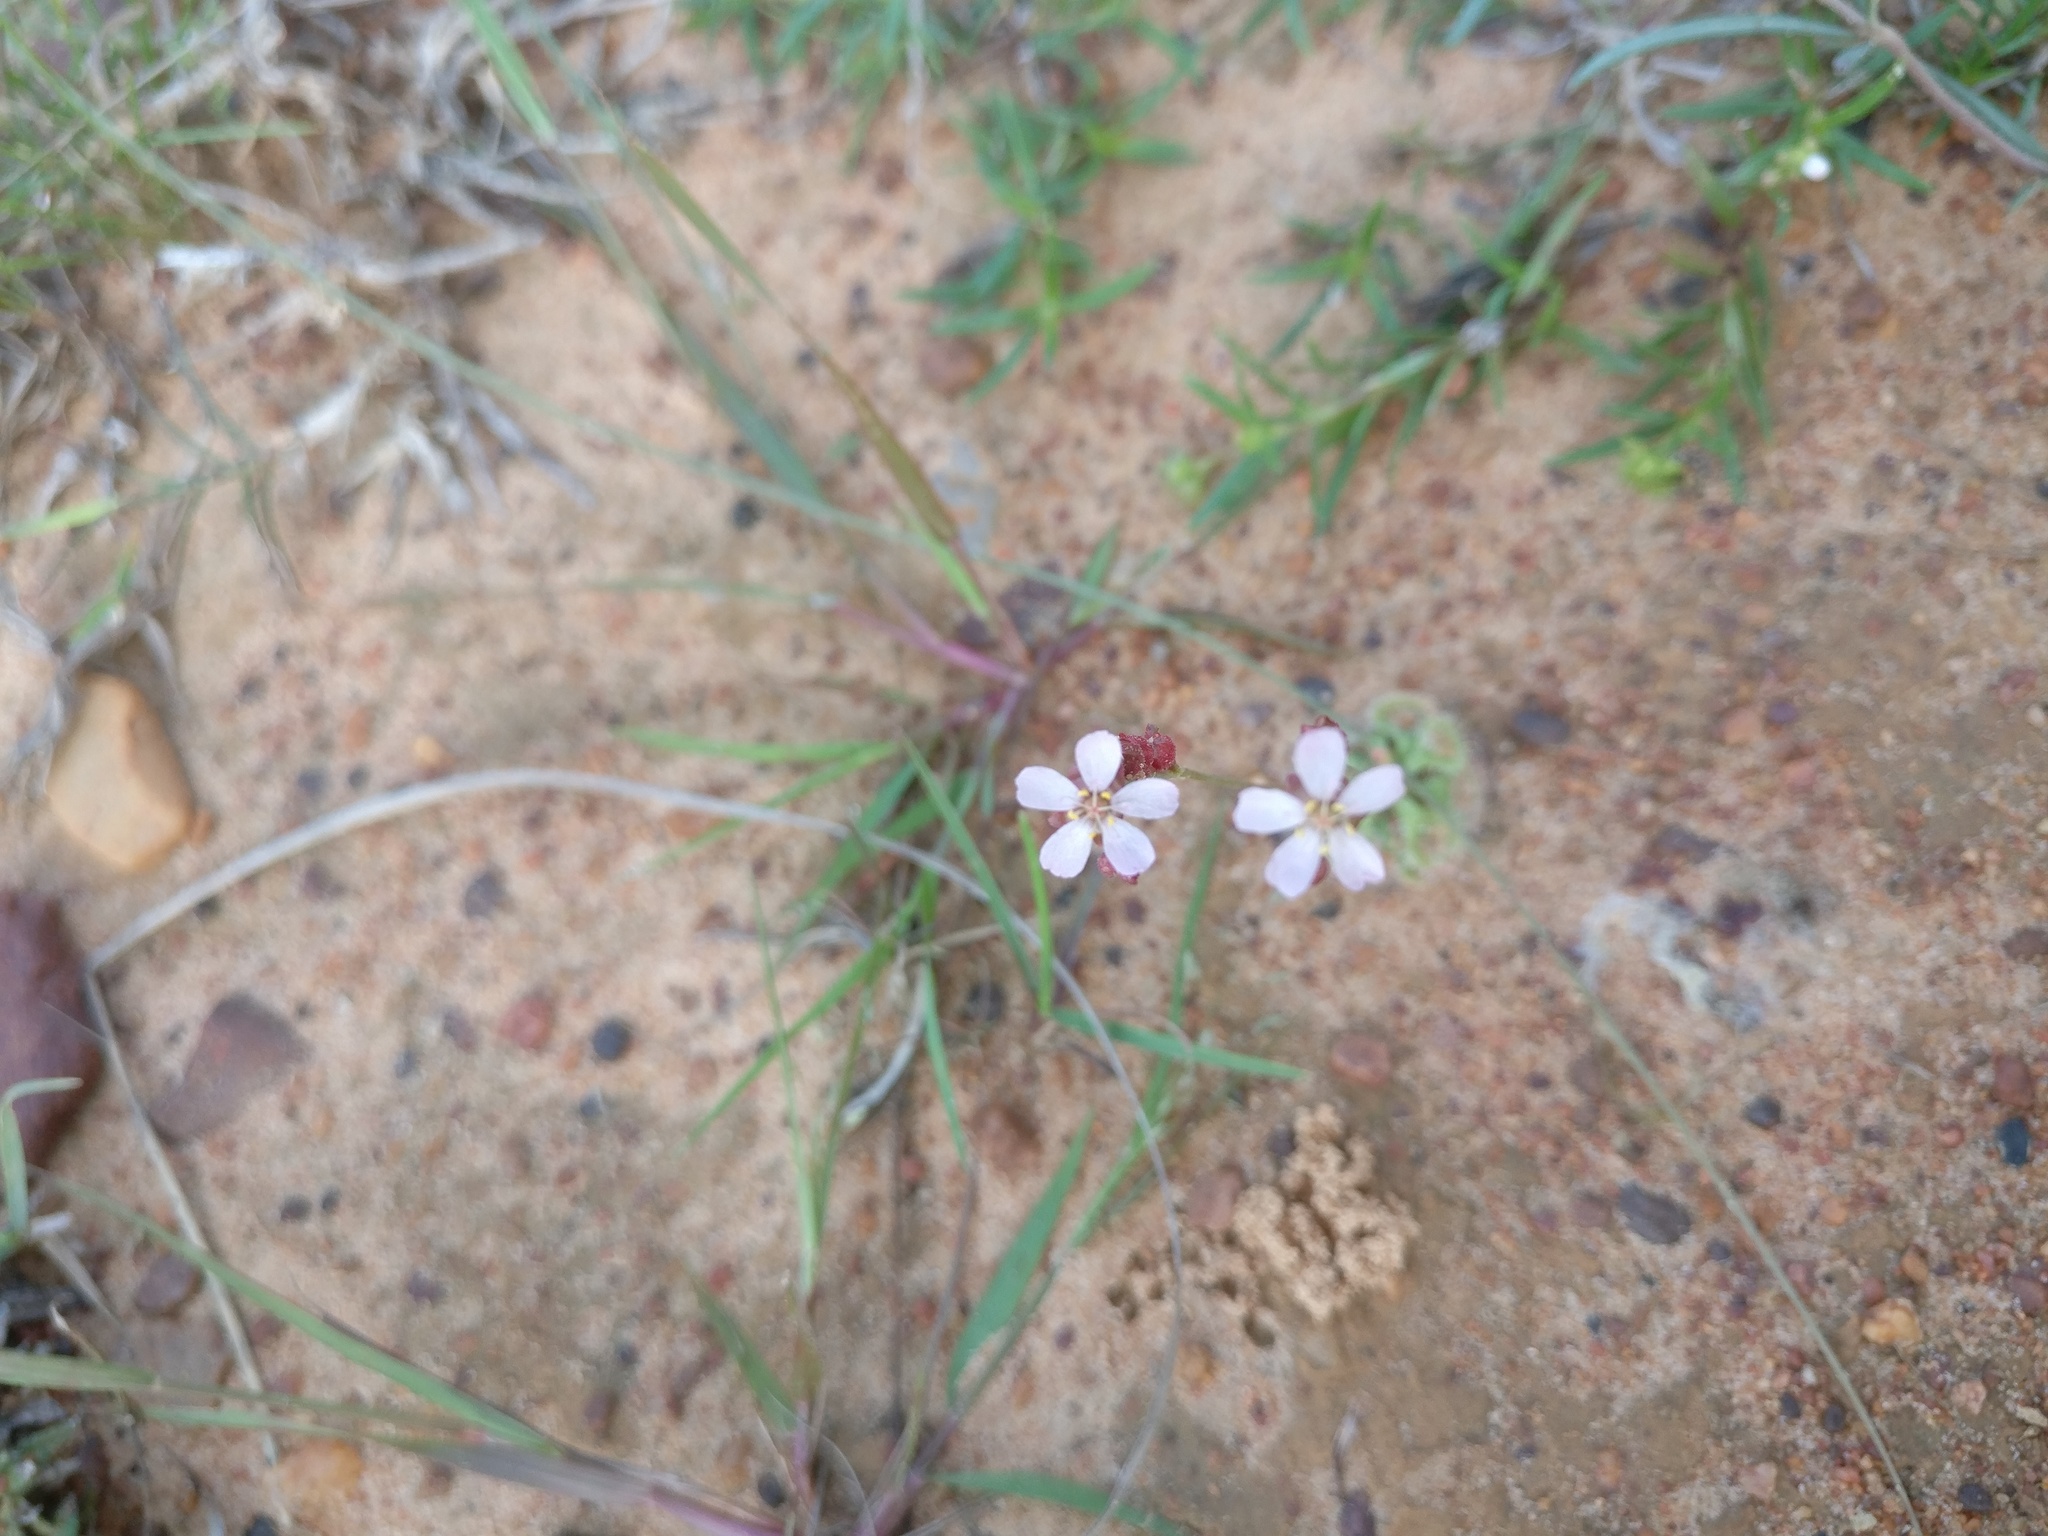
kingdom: Plantae
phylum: Tracheophyta
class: Magnoliopsida
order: Caryophyllales
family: Droseraceae
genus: Drosera
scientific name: Drosera spatulata
